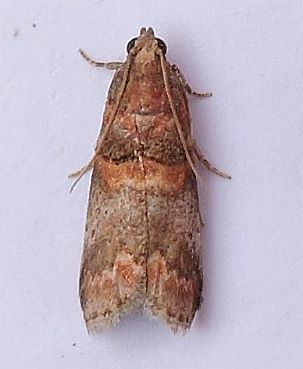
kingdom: Animalia
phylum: Arthropoda
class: Insecta
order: Lepidoptera
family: Pyralidae
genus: Acrobasis
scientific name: Acrobasis angusella
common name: Hickory leafstem borer moth
